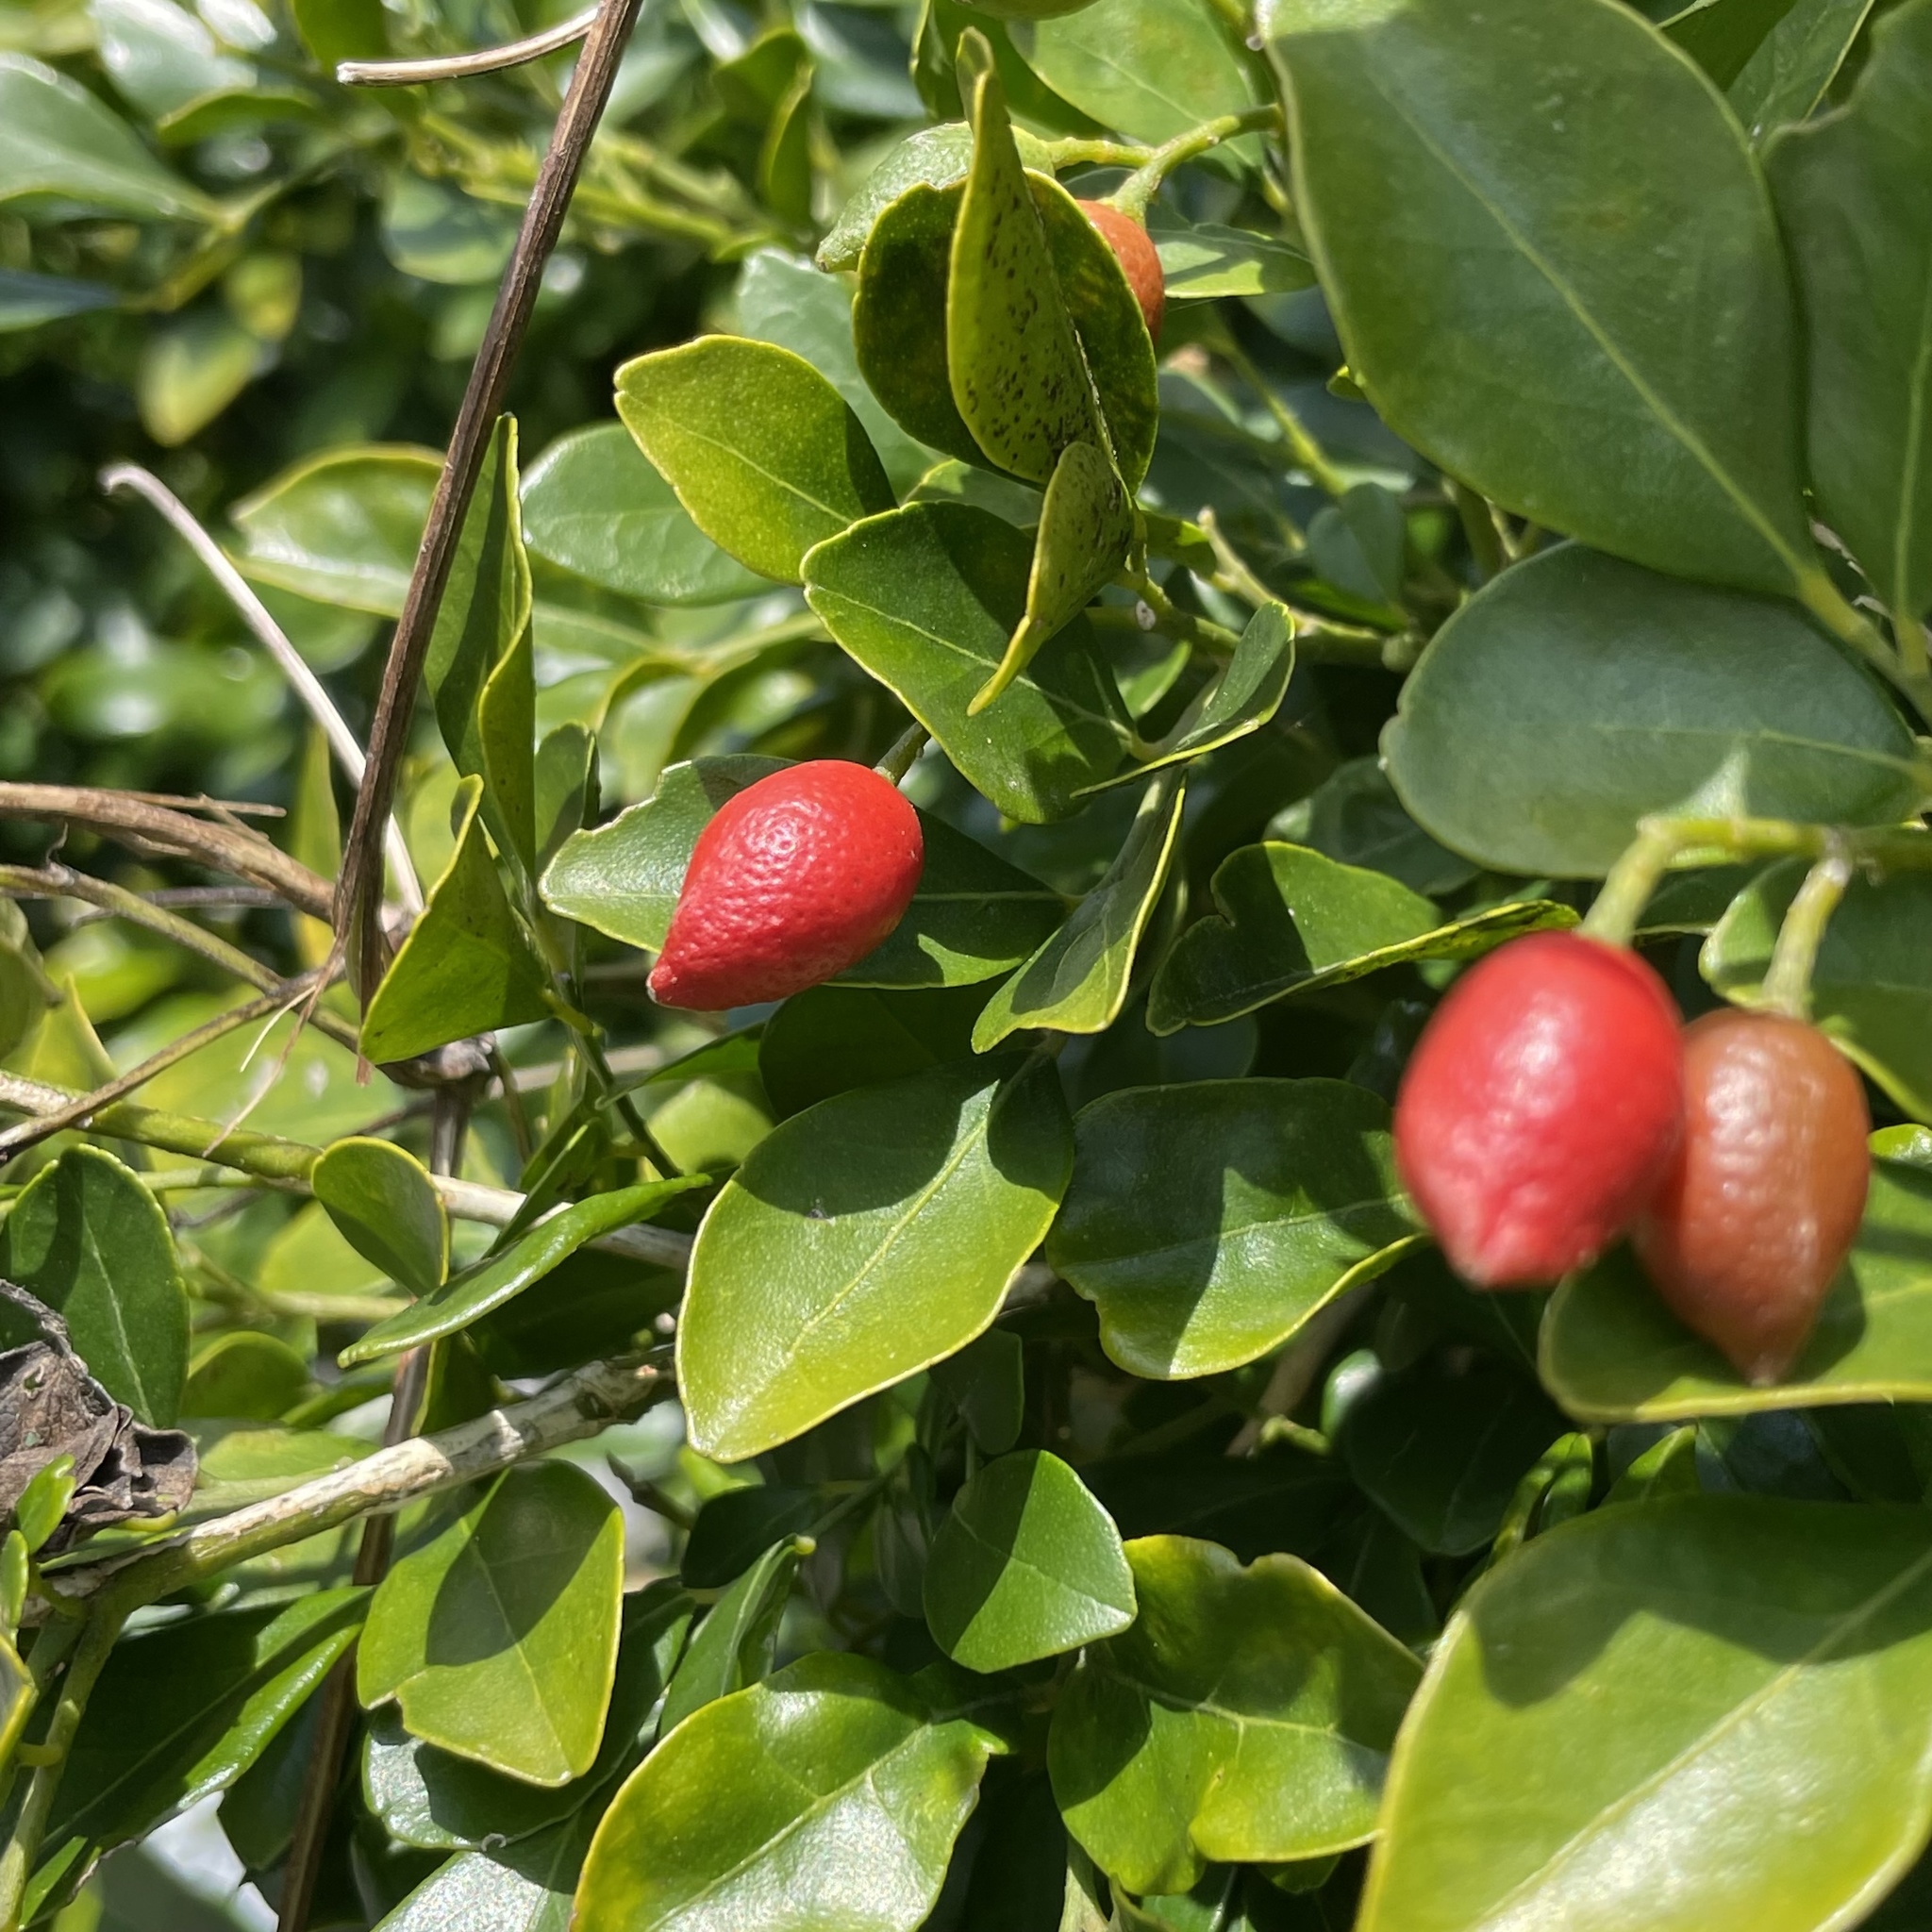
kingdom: Plantae
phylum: Tracheophyta
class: Magnoliopsida
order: Sapindales
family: Rutaceae
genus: Murraya
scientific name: Murraya paniculata
